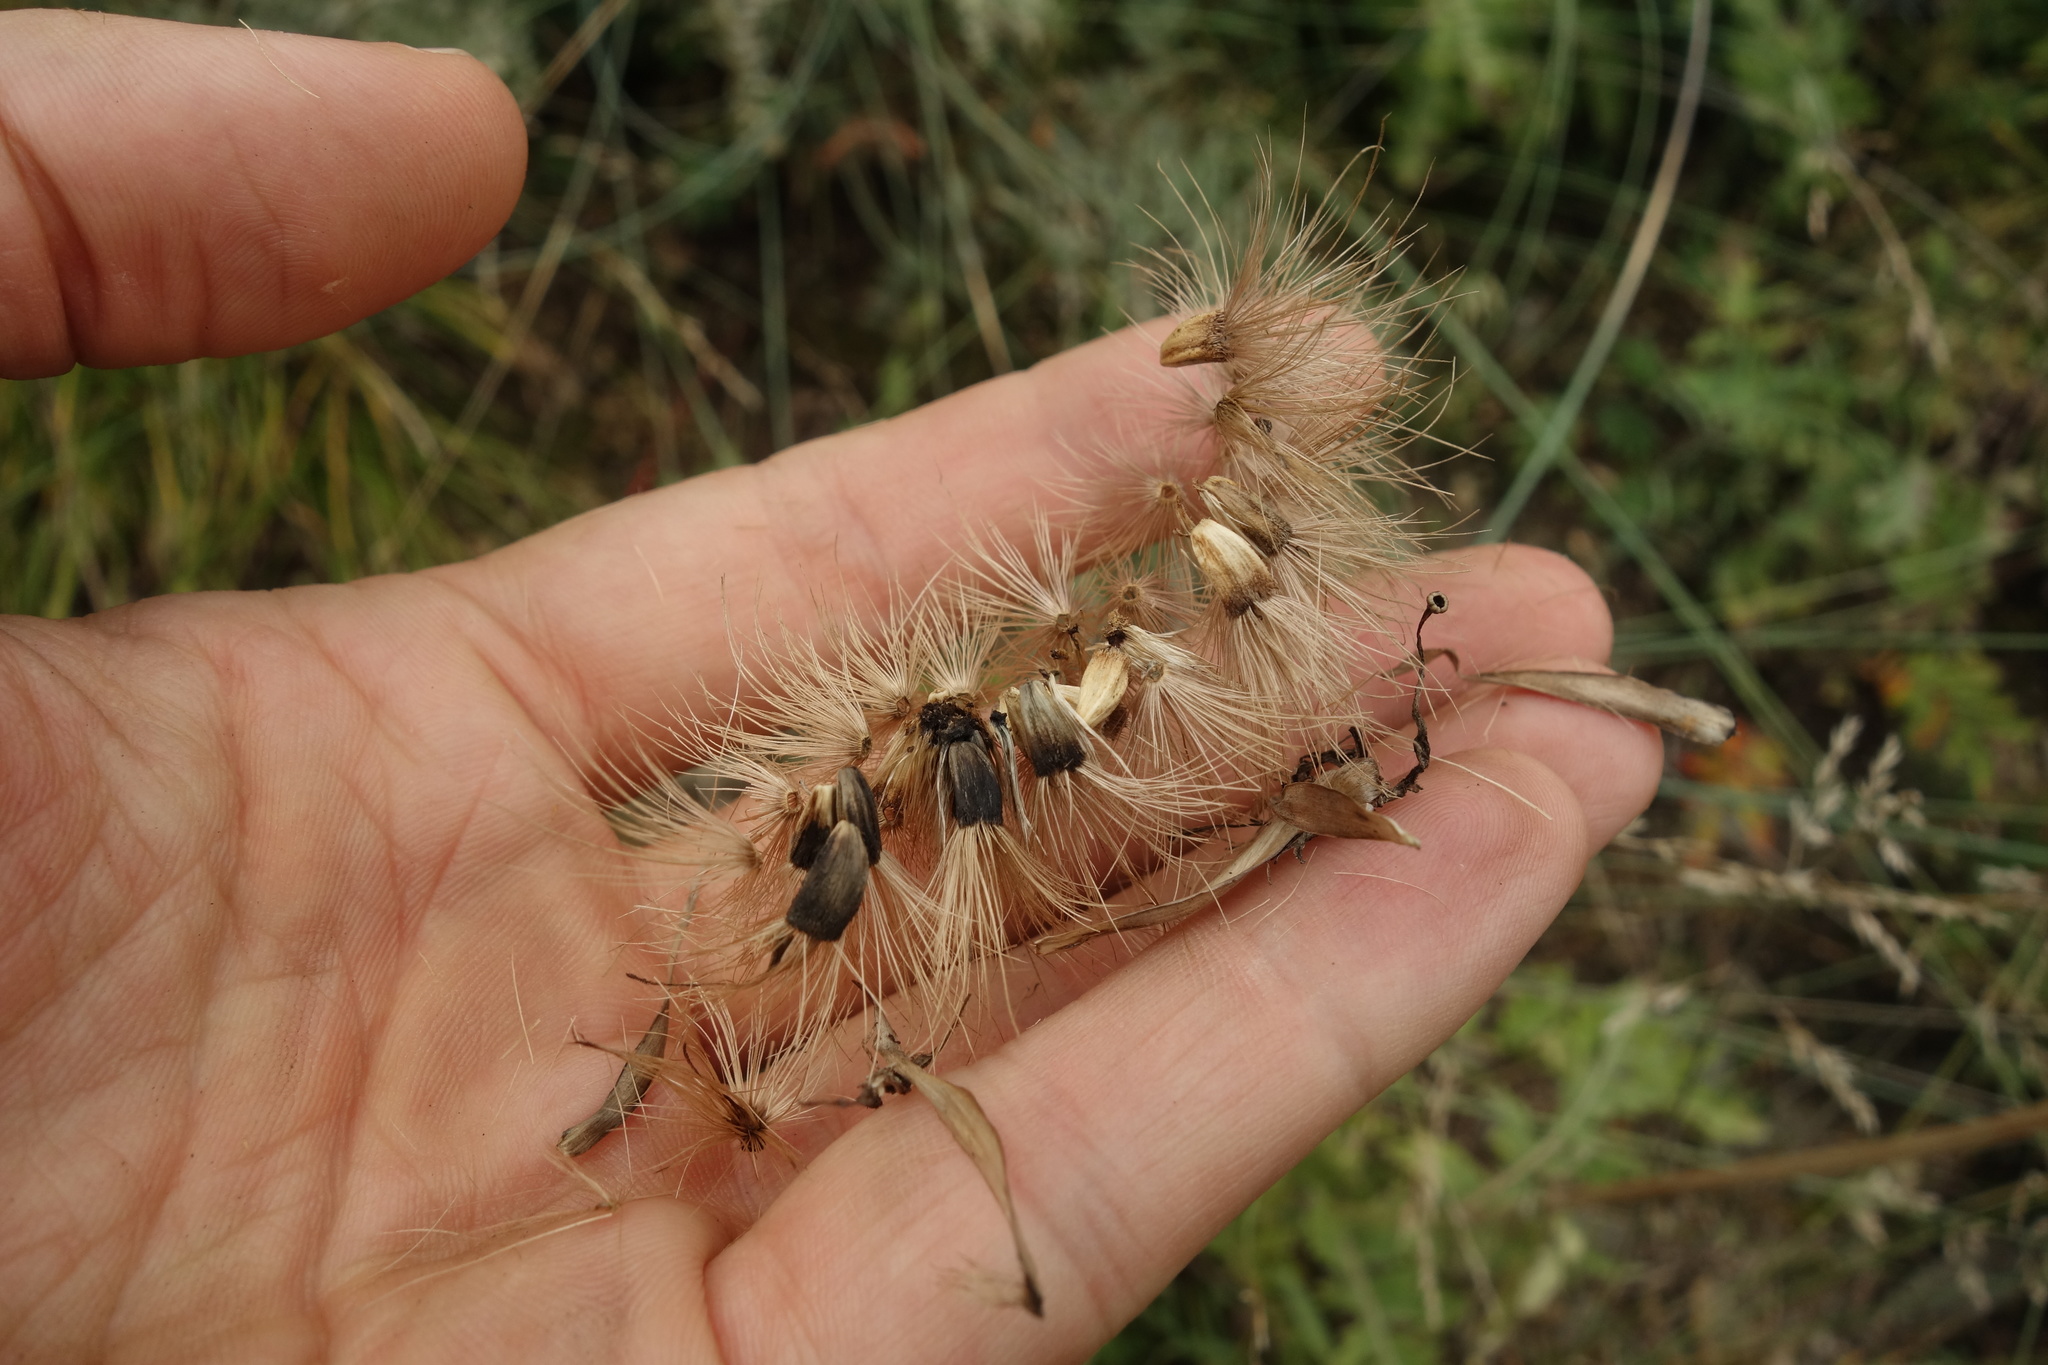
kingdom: Plantae
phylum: Tracheophyta
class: Magnoliopsida
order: Asterales
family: Asteraceae
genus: Leuzea
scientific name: Leuzea uniflora
